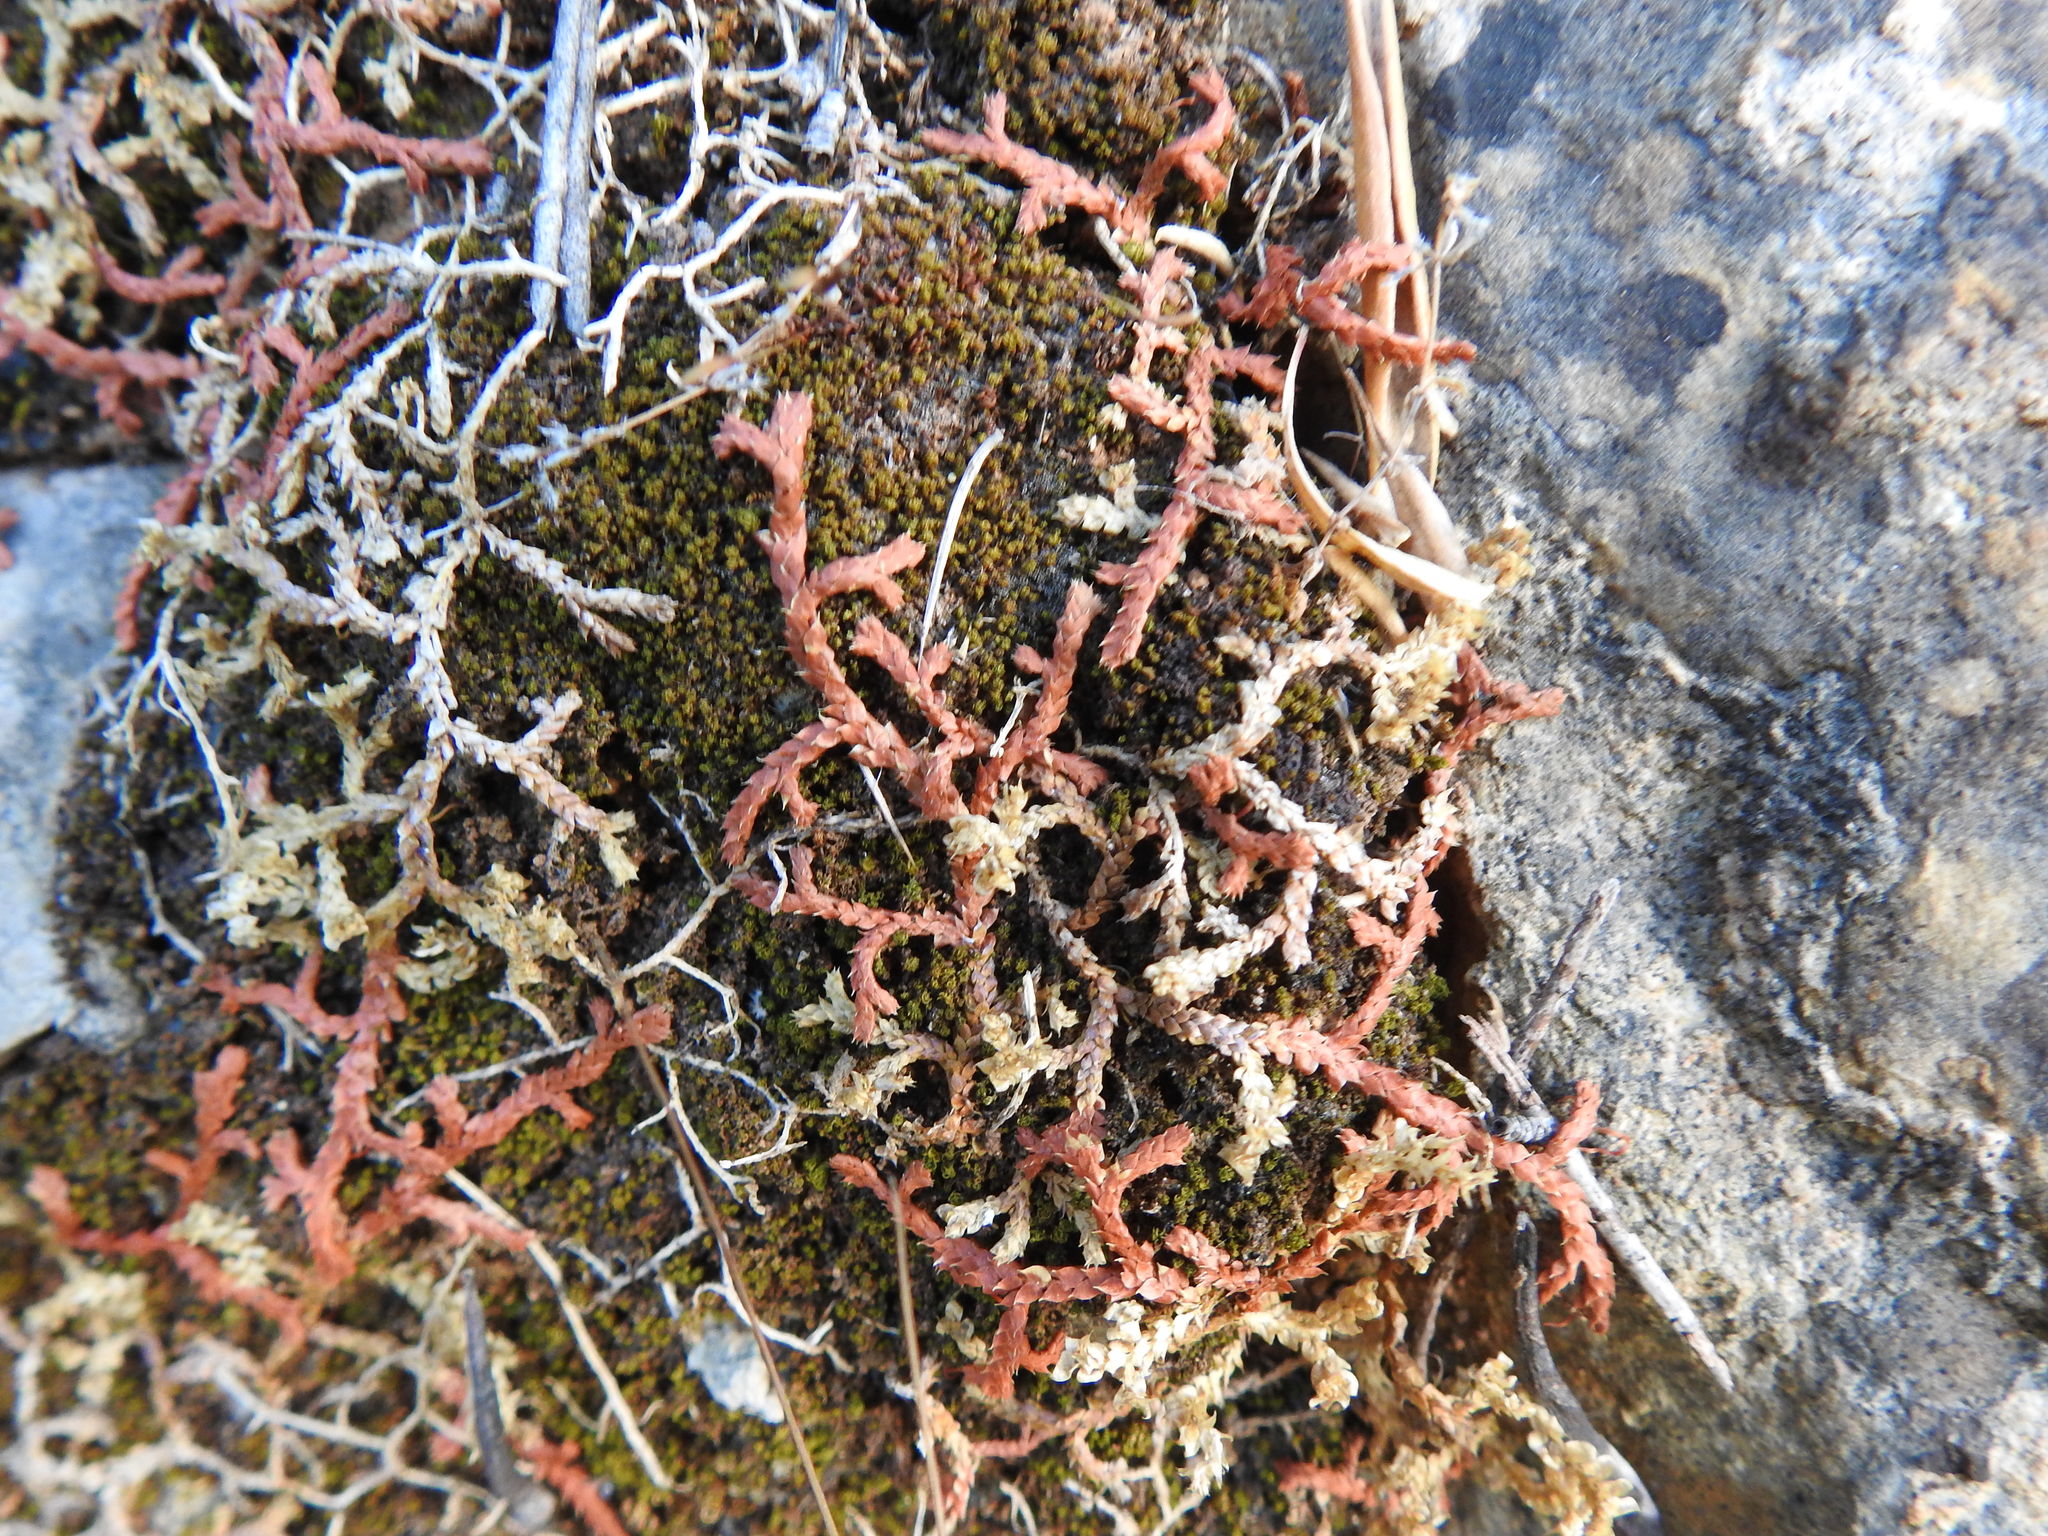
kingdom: Plantae
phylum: Tracheophyta
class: Lycopodiopsida
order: Selaginellales
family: Selaginellaceae
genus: Selaginella
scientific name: Selaginella denticulata
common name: Toothed-leaved clubmoss
